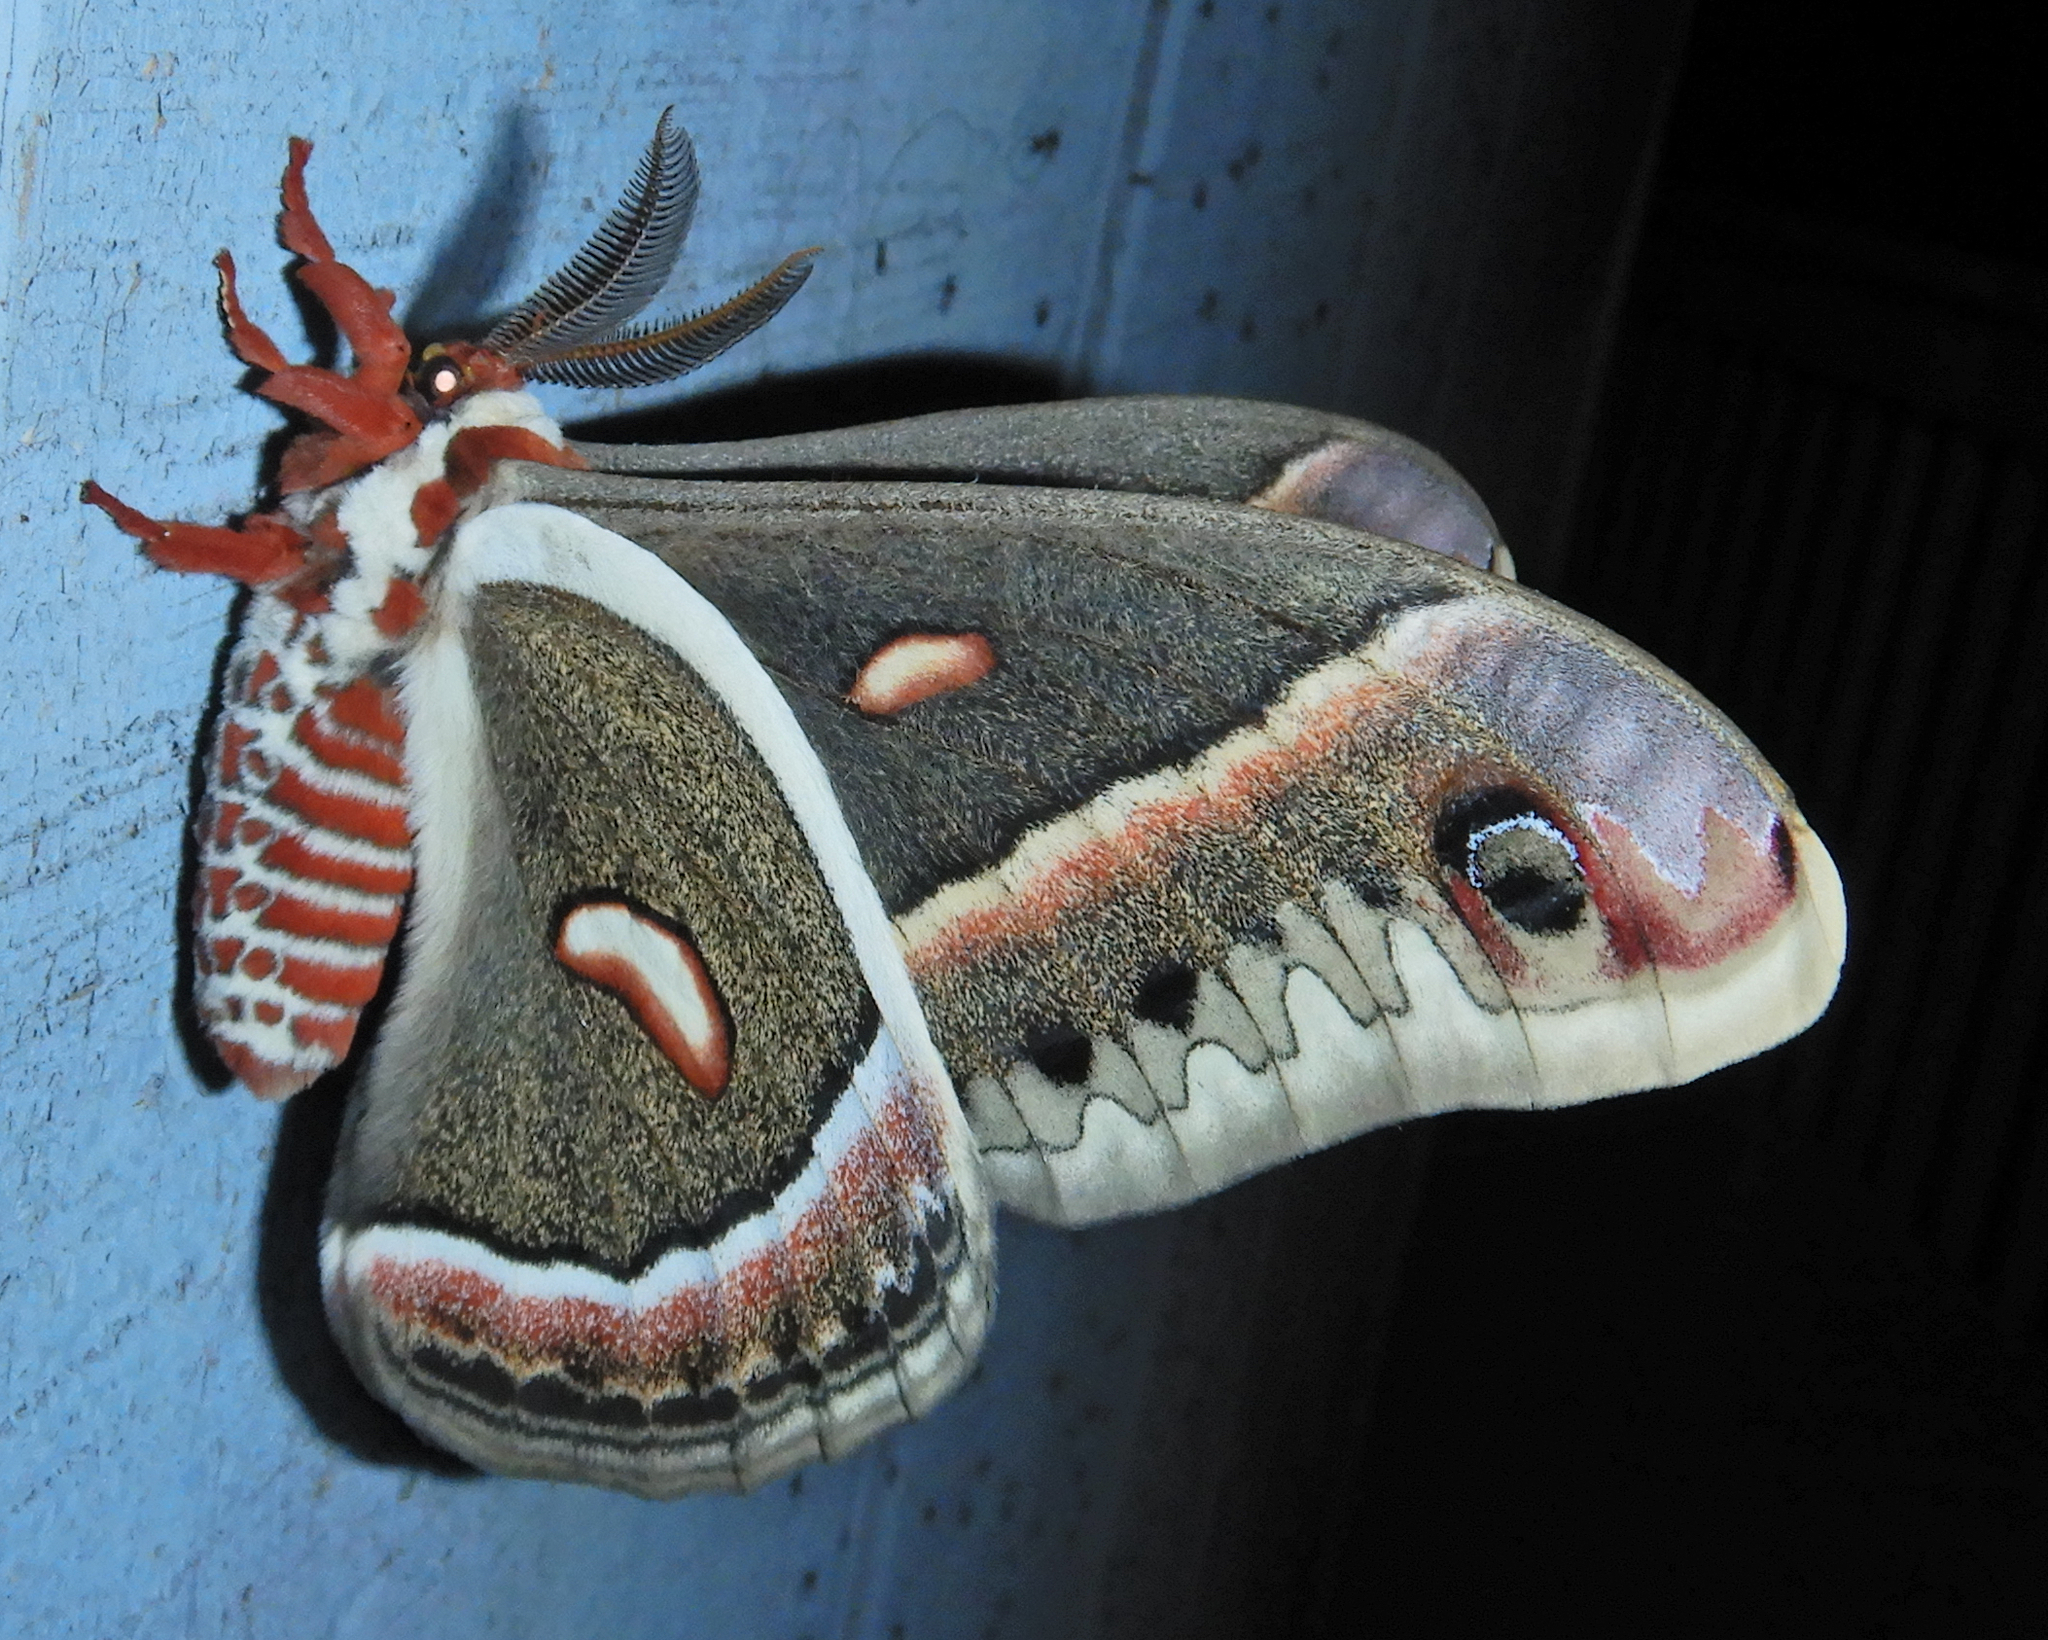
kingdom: Animalia
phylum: Arthropoda
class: Insecta
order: Lepidoptera
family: Saturniidae
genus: Hyalophora
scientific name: Hyalophora cecropia
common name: Cecropia silkmoth
